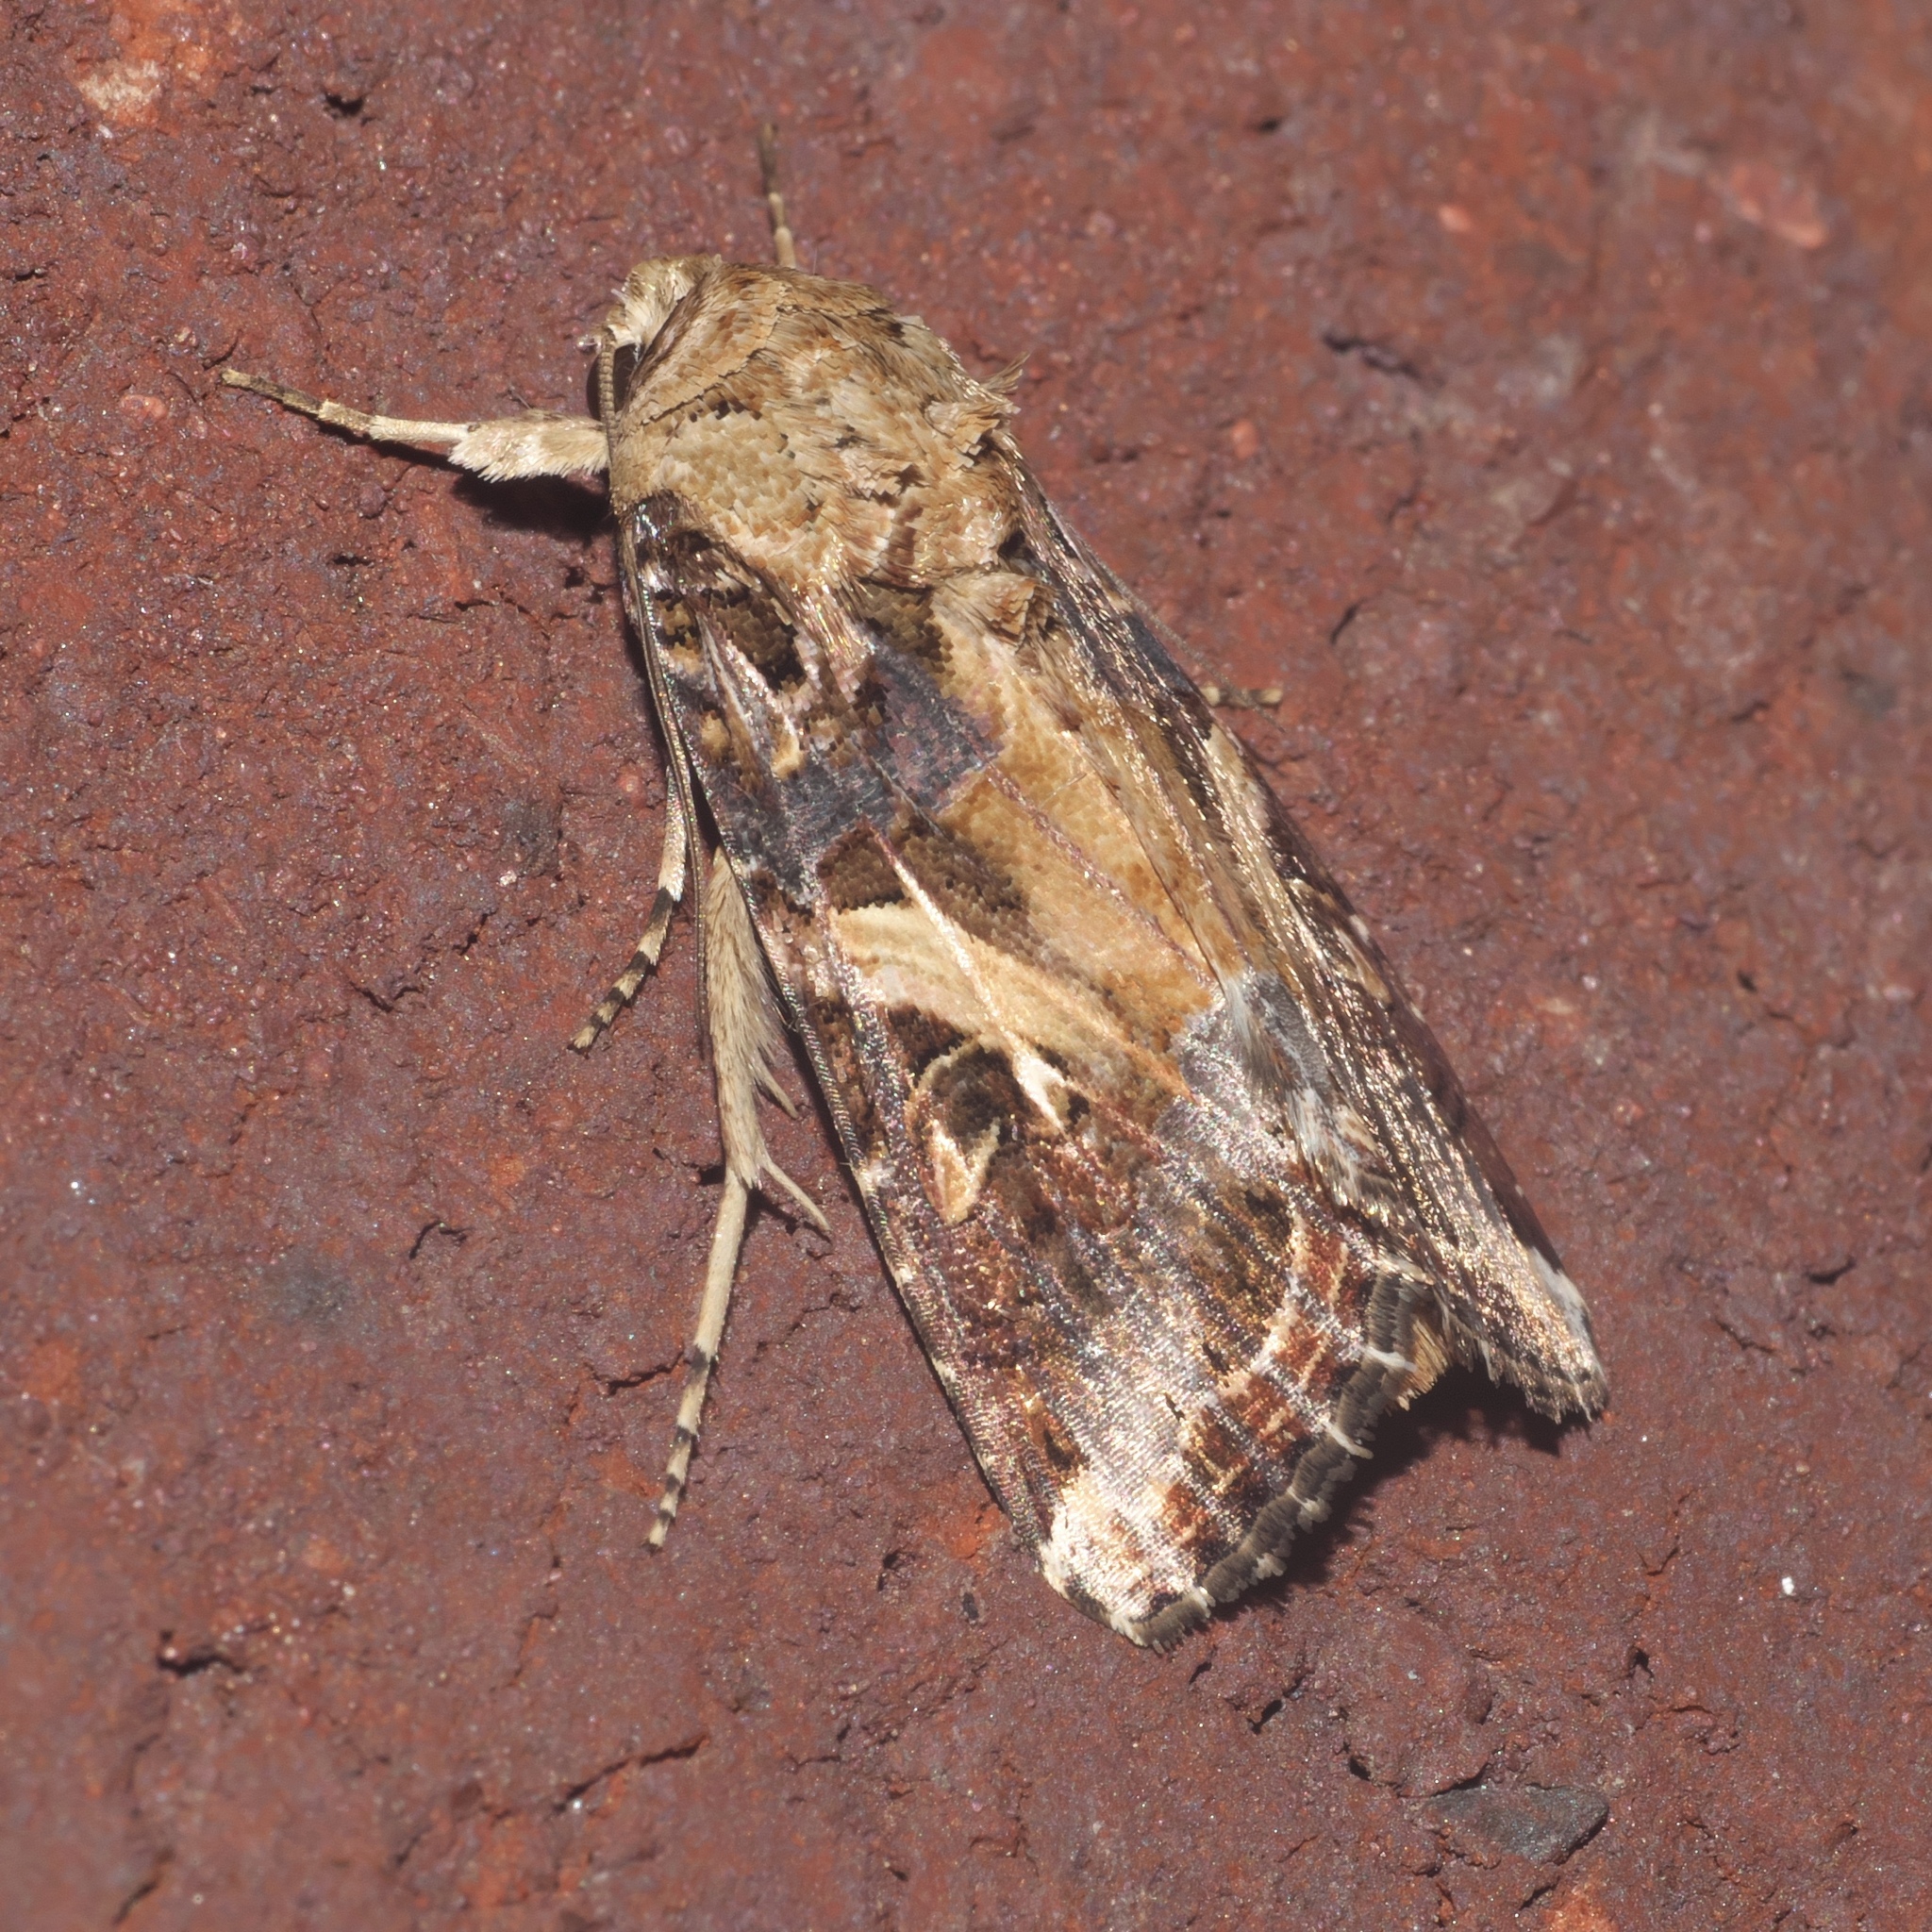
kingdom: Animalia
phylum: Arthropoda
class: Insecta
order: Lepidoptera
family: Noctuidae
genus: Spodoptera
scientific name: Spodoptera ornithogalli
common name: Yellow-striped armyworm
